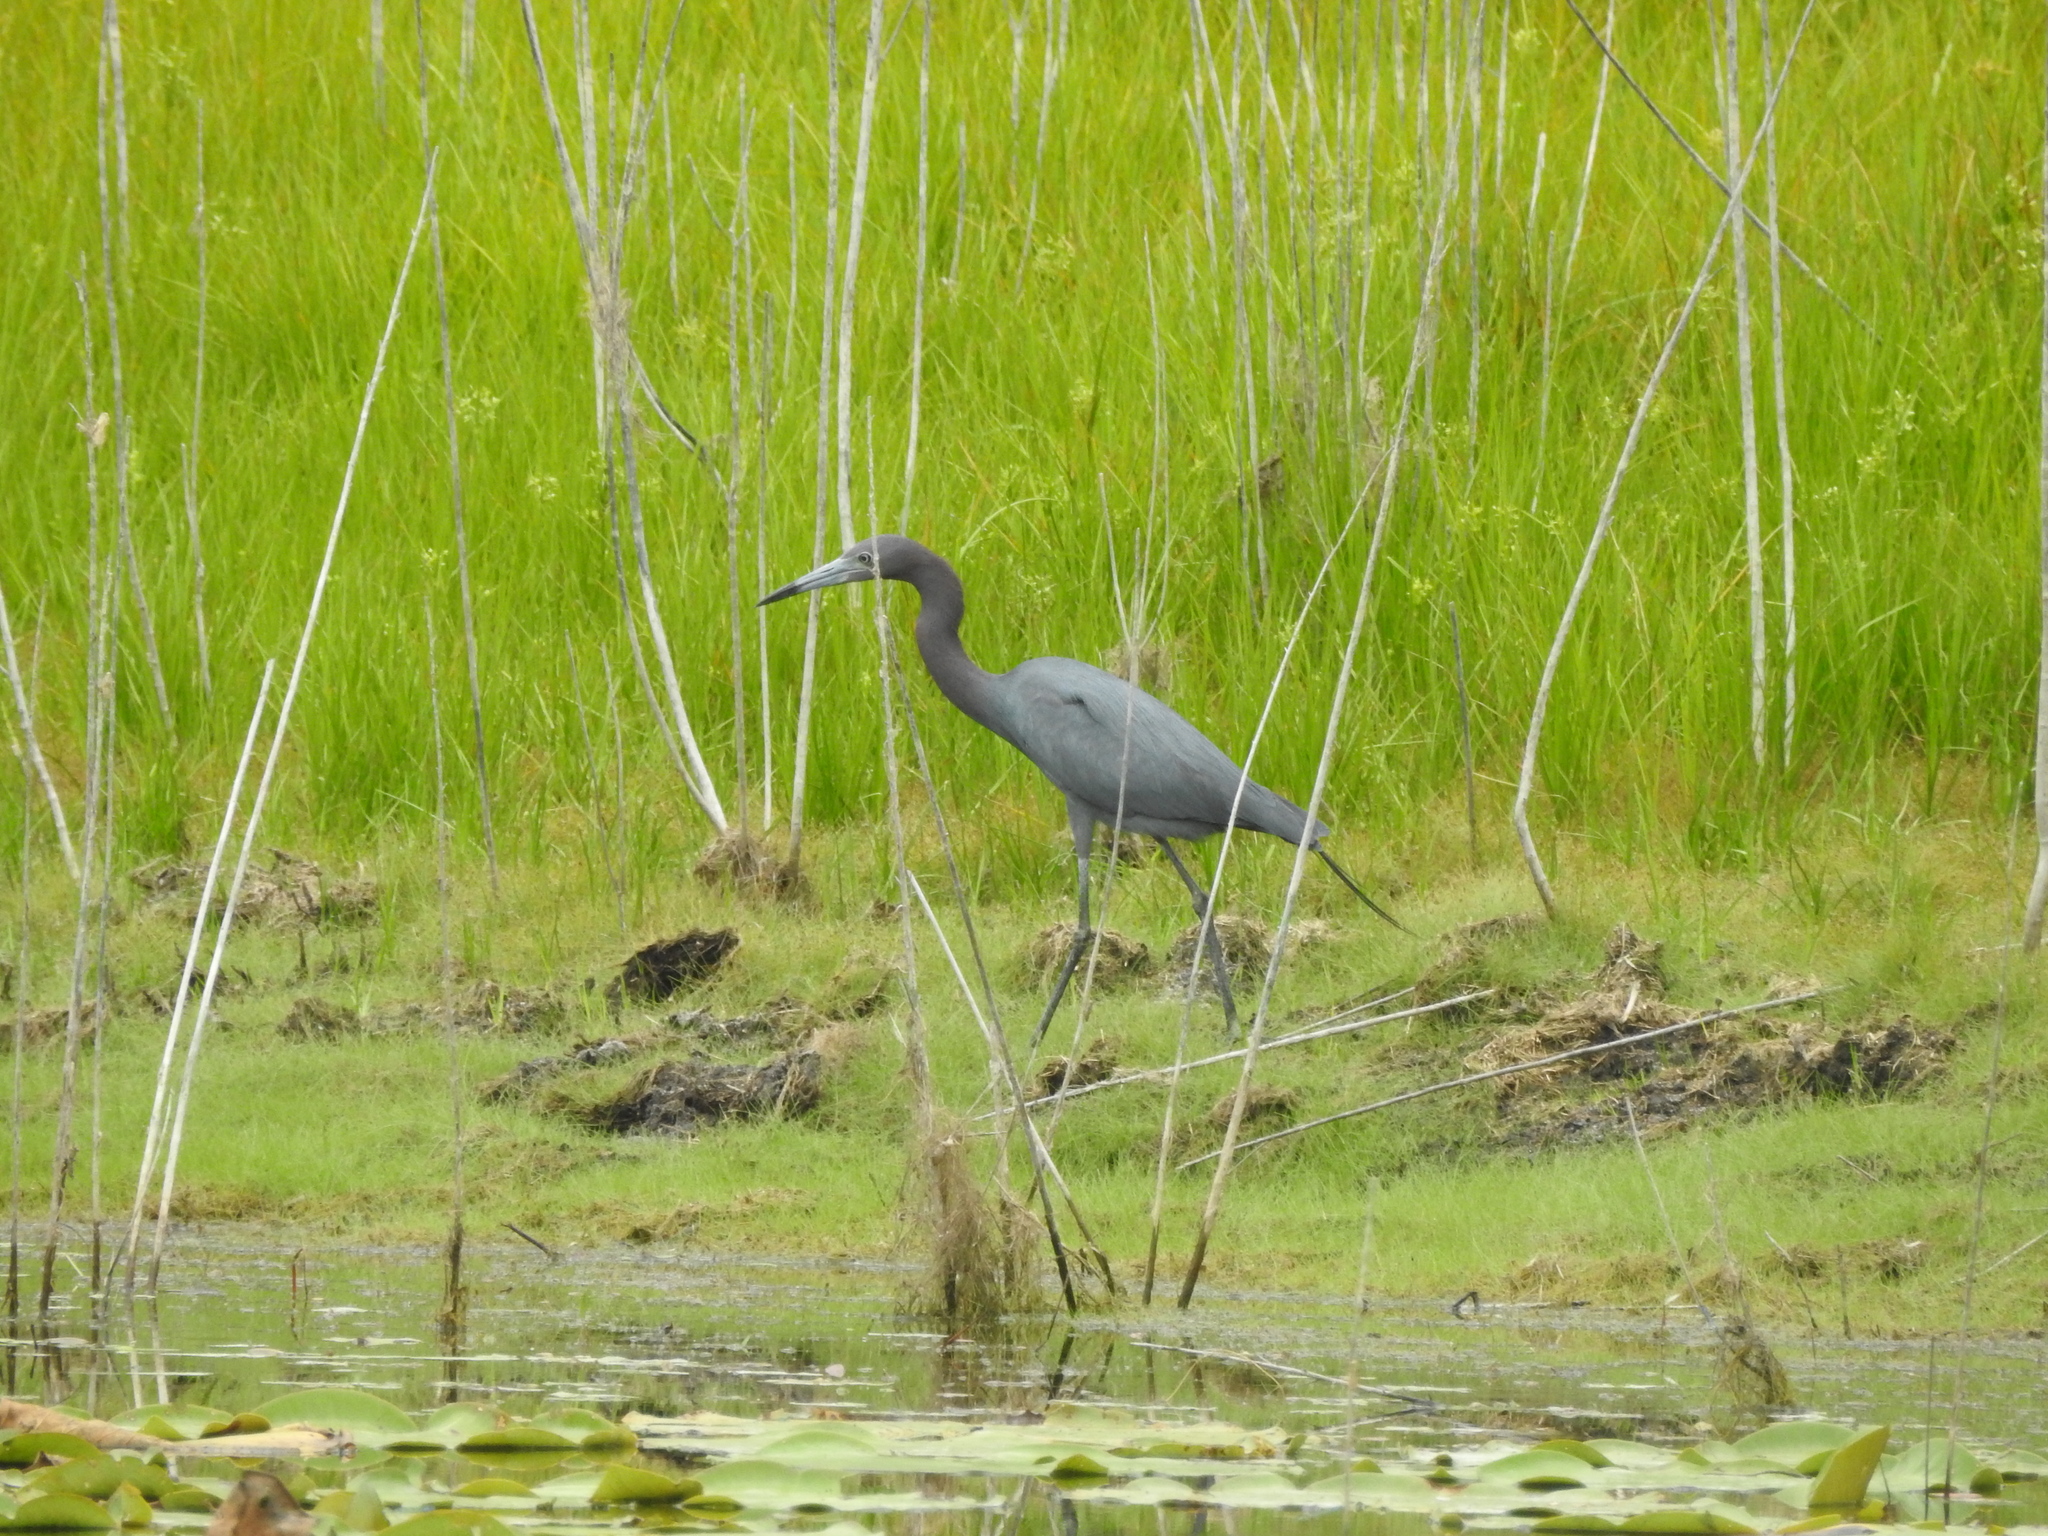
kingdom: Animalia
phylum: Chordata
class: Aves
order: Pelecaniformes
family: Ardeidae
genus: Egretta
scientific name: Egretta caerulea
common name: Little blue heron
